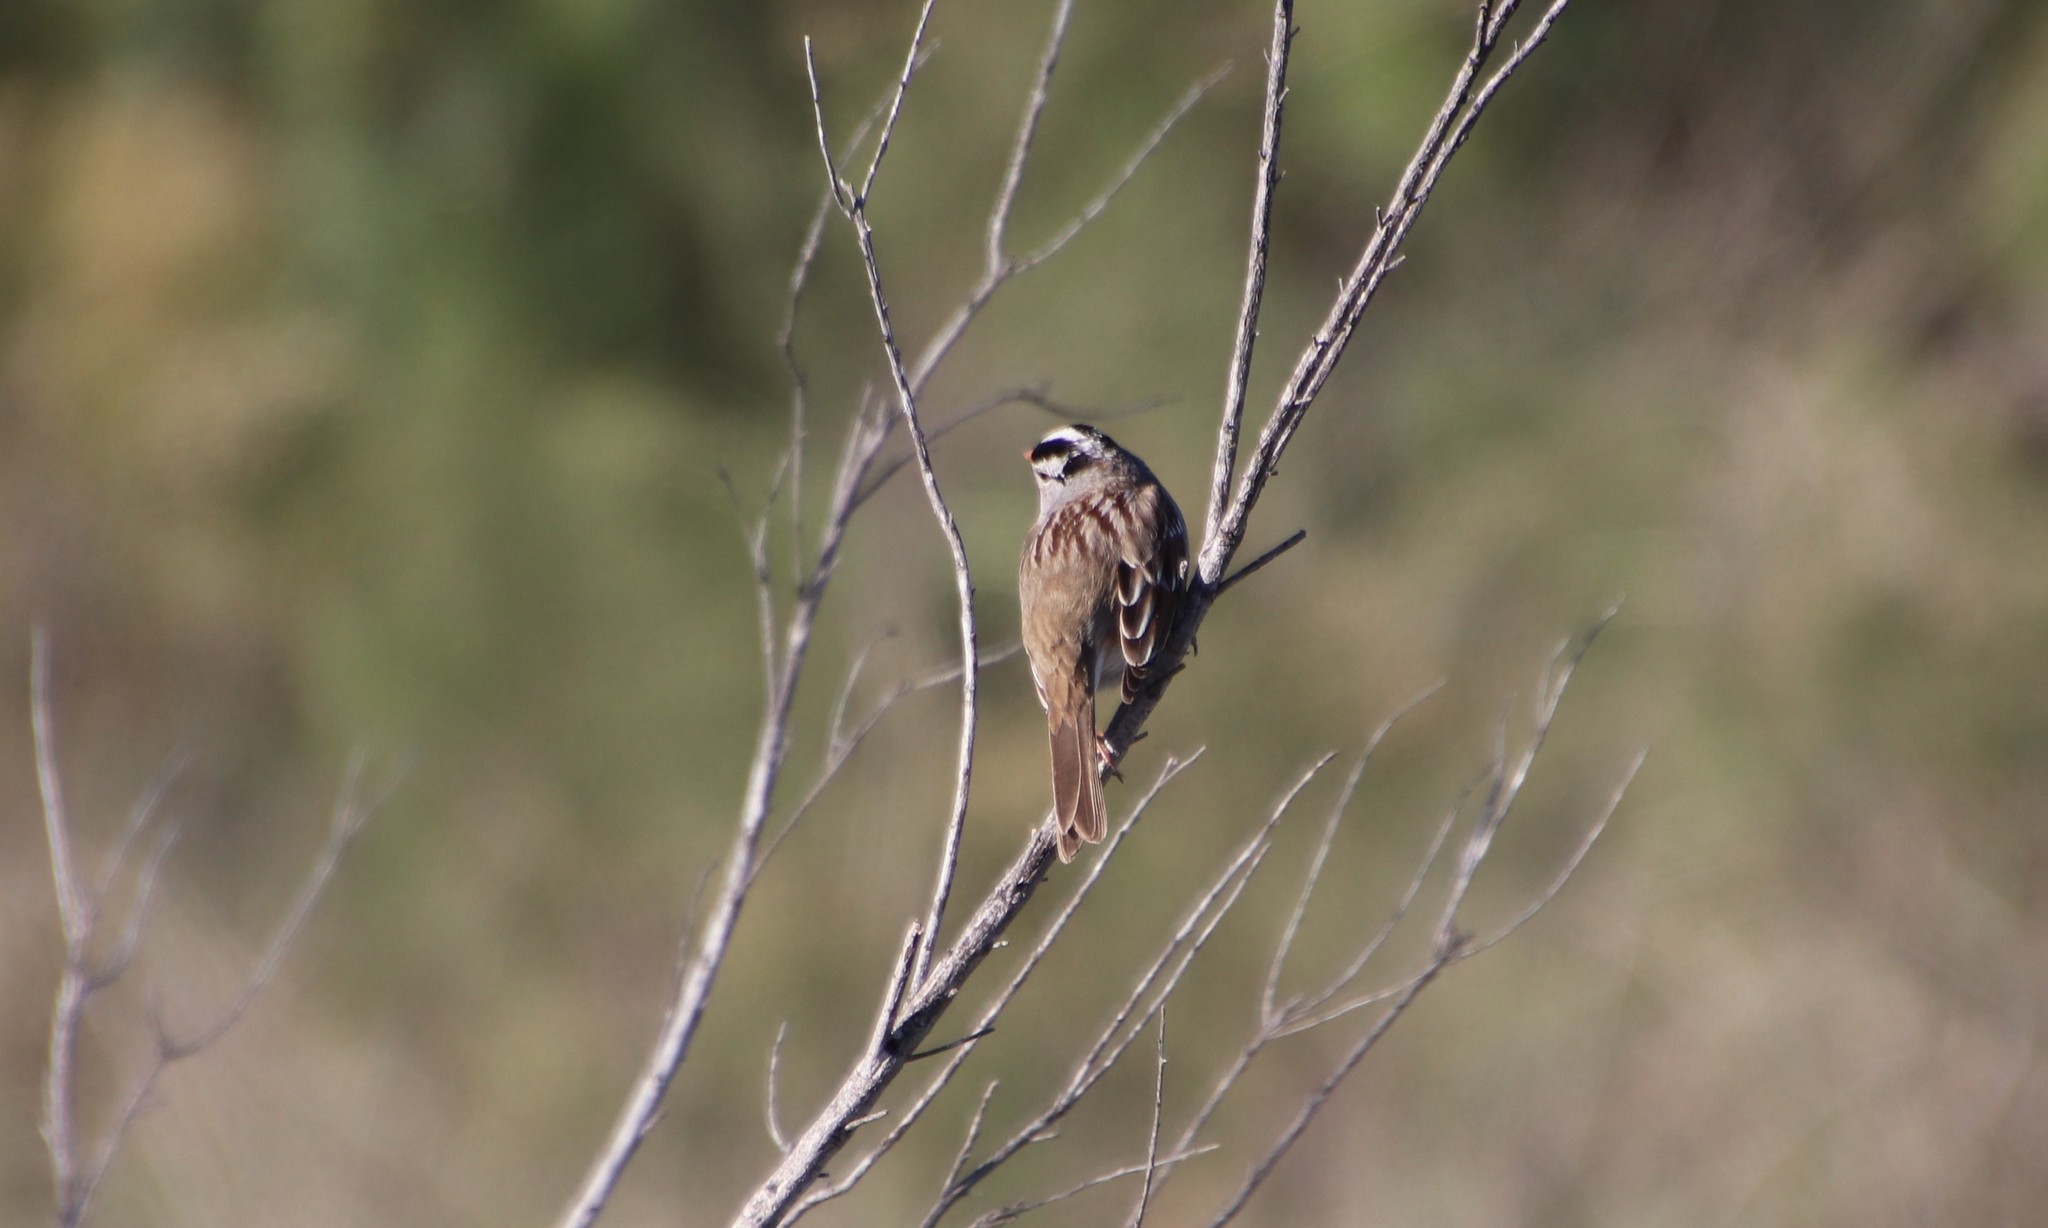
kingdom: Animalia
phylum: Chordata
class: Aves
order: Passeriformes
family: Passerellidae
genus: Zonotrichia
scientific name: Zonotrichia leucophrys
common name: White-crowned sparrow
